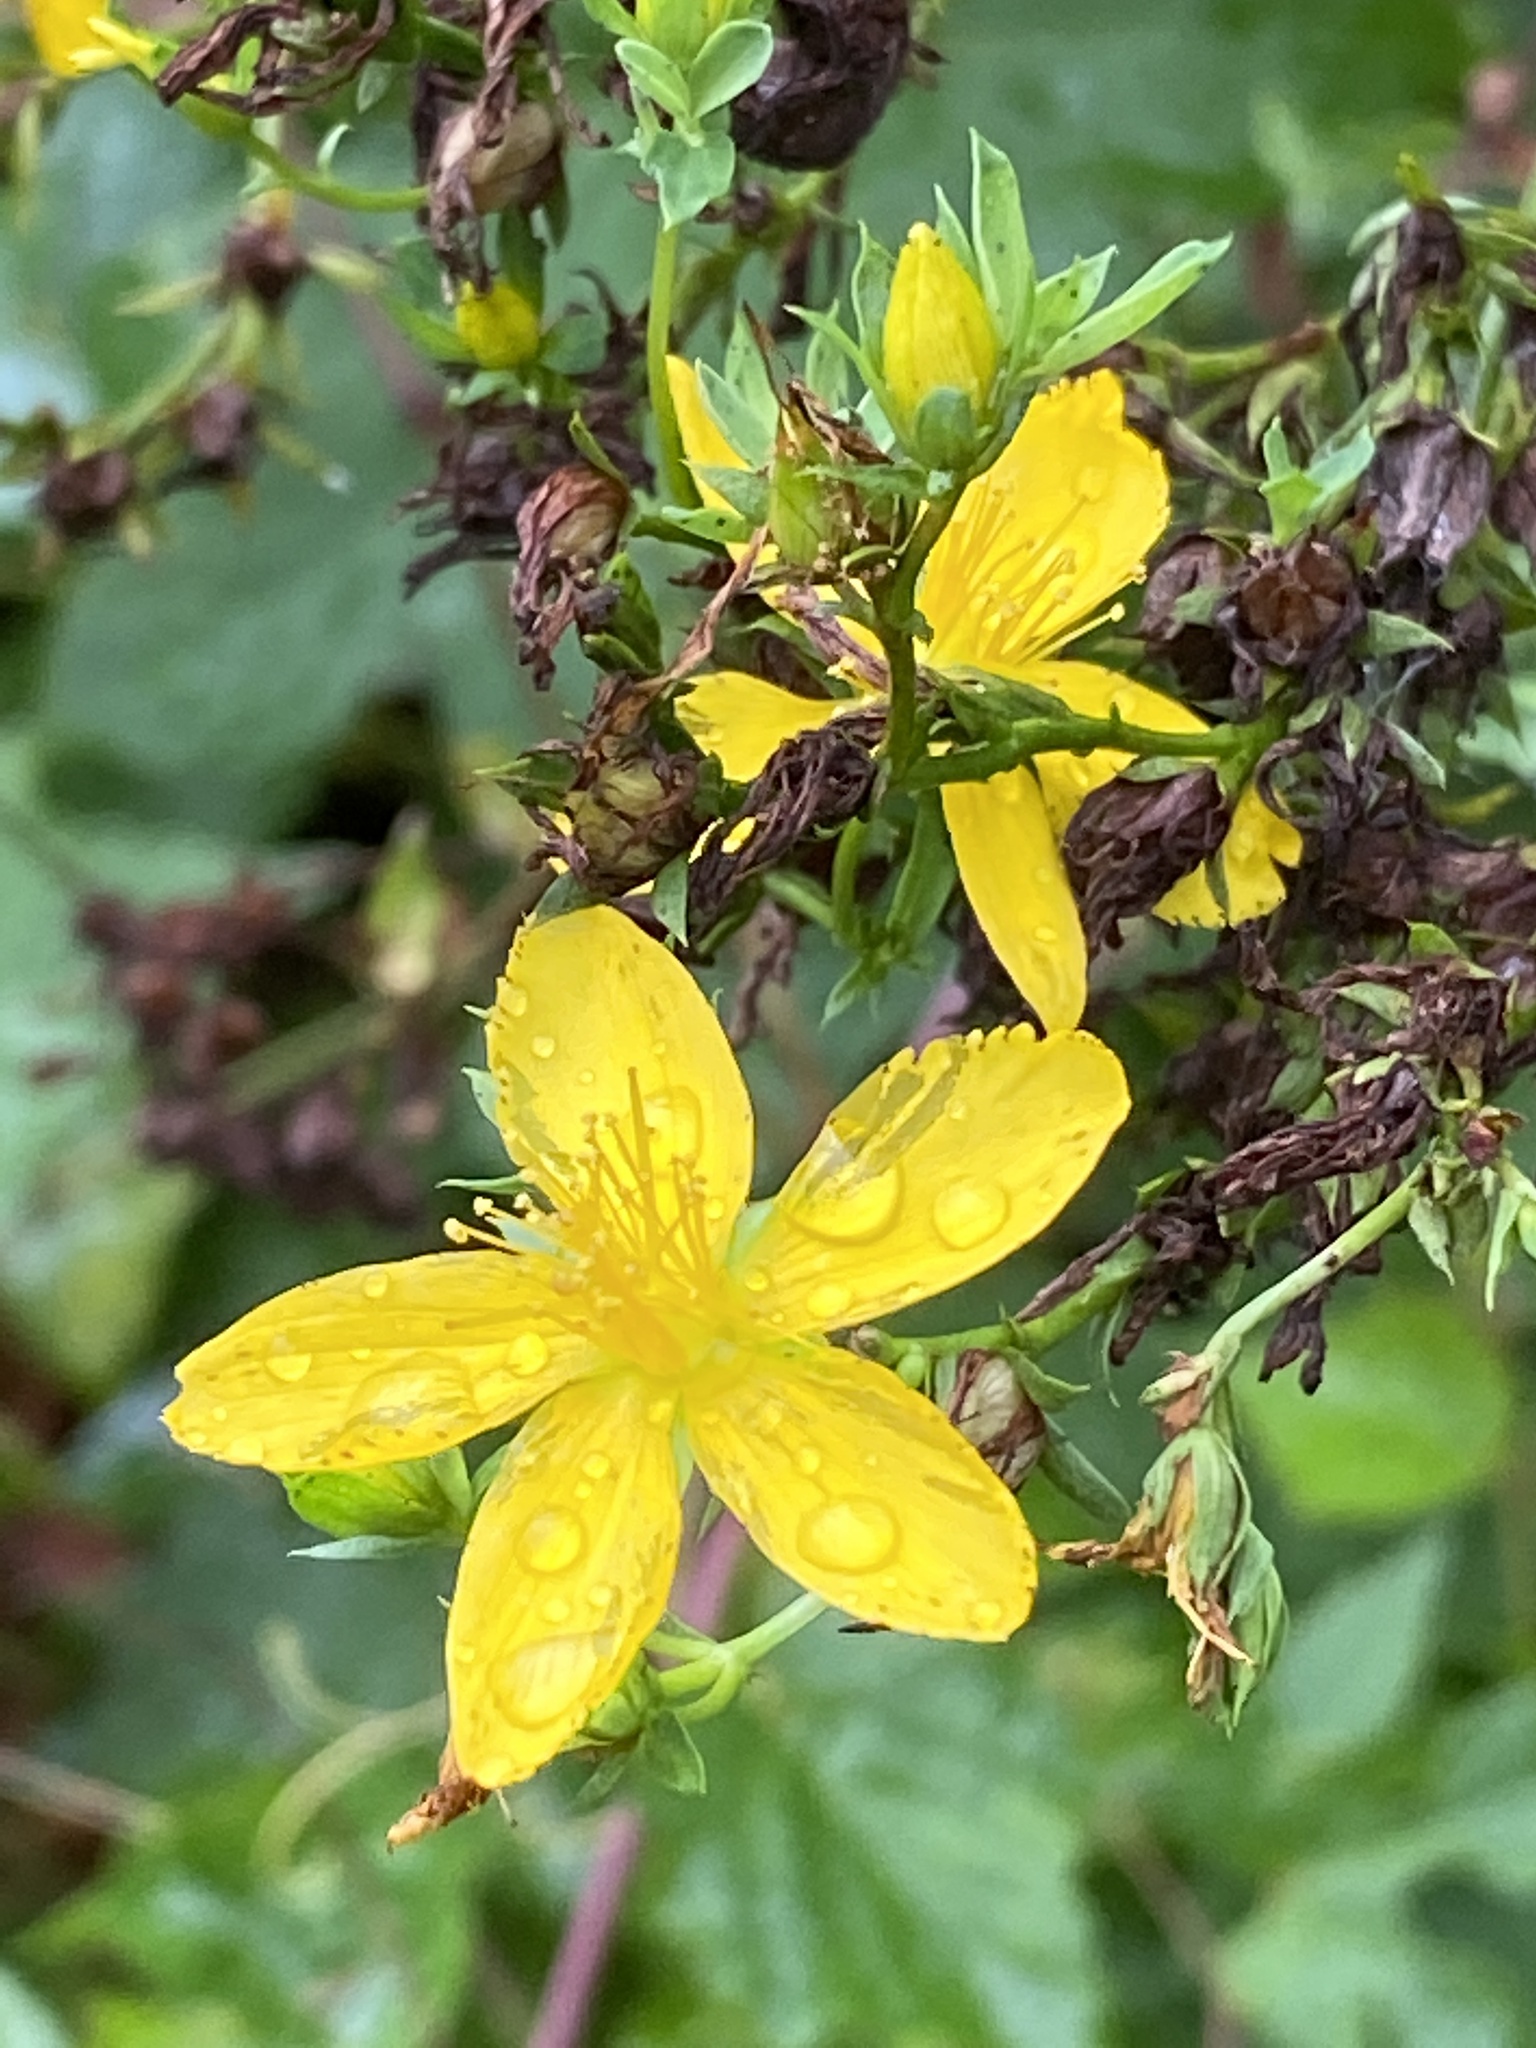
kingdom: Plantae
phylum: Tracheophyta
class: Magnoliopsida
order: Malpighiales
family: Hypericaceae
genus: Hypericum
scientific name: Hypericum perforatum
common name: Common st. johnswort
